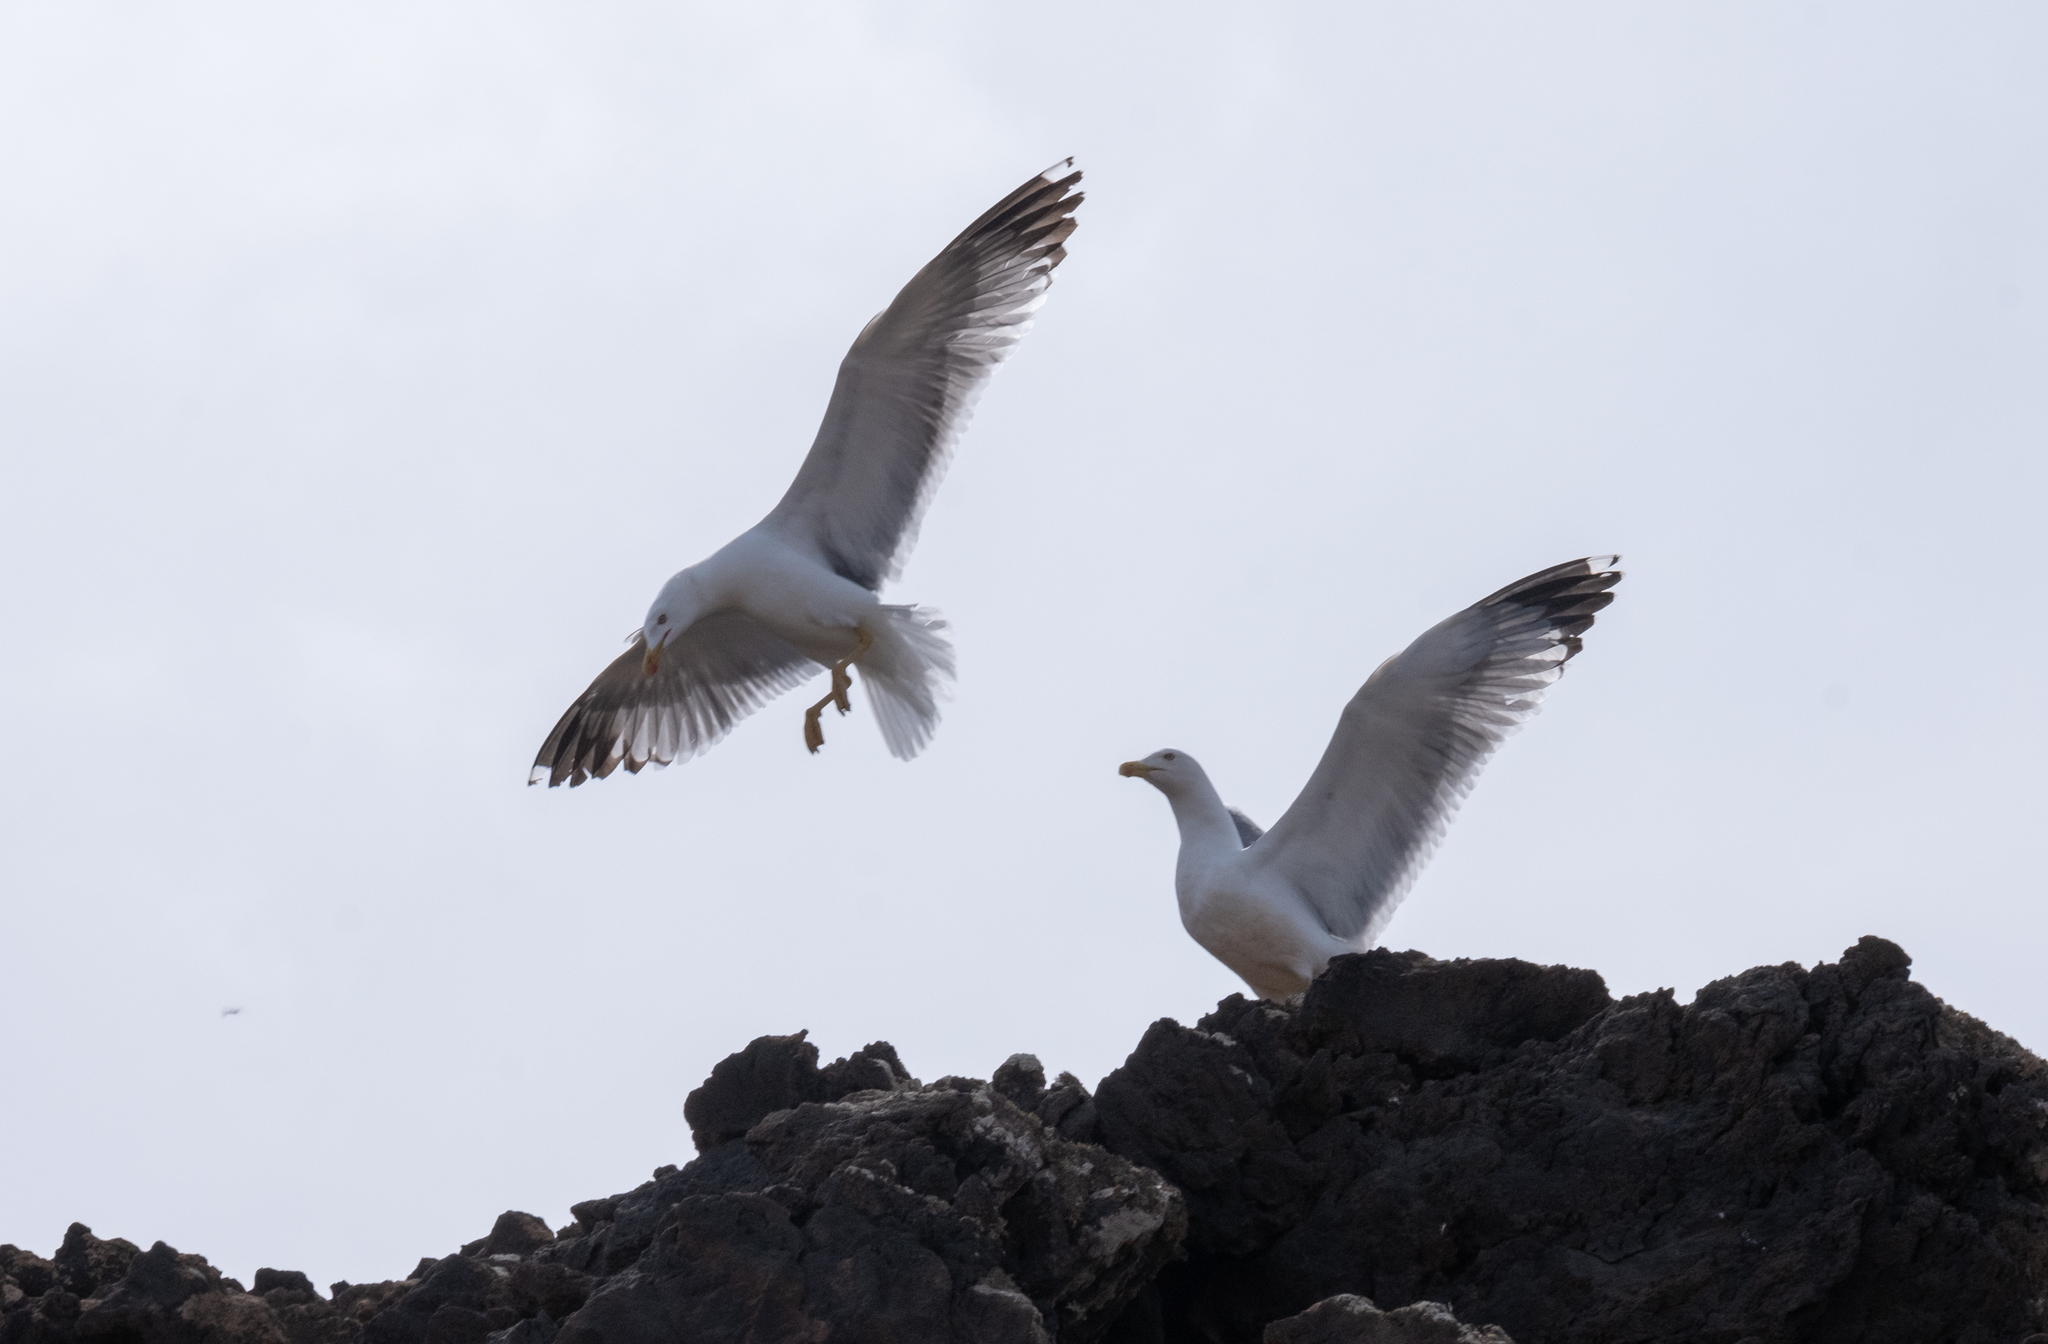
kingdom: Animalia
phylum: Chordata
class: Aves
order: Charadriiformes
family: Laridae
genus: Larus
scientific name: Larus michahellis
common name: Yellow-legged gull
